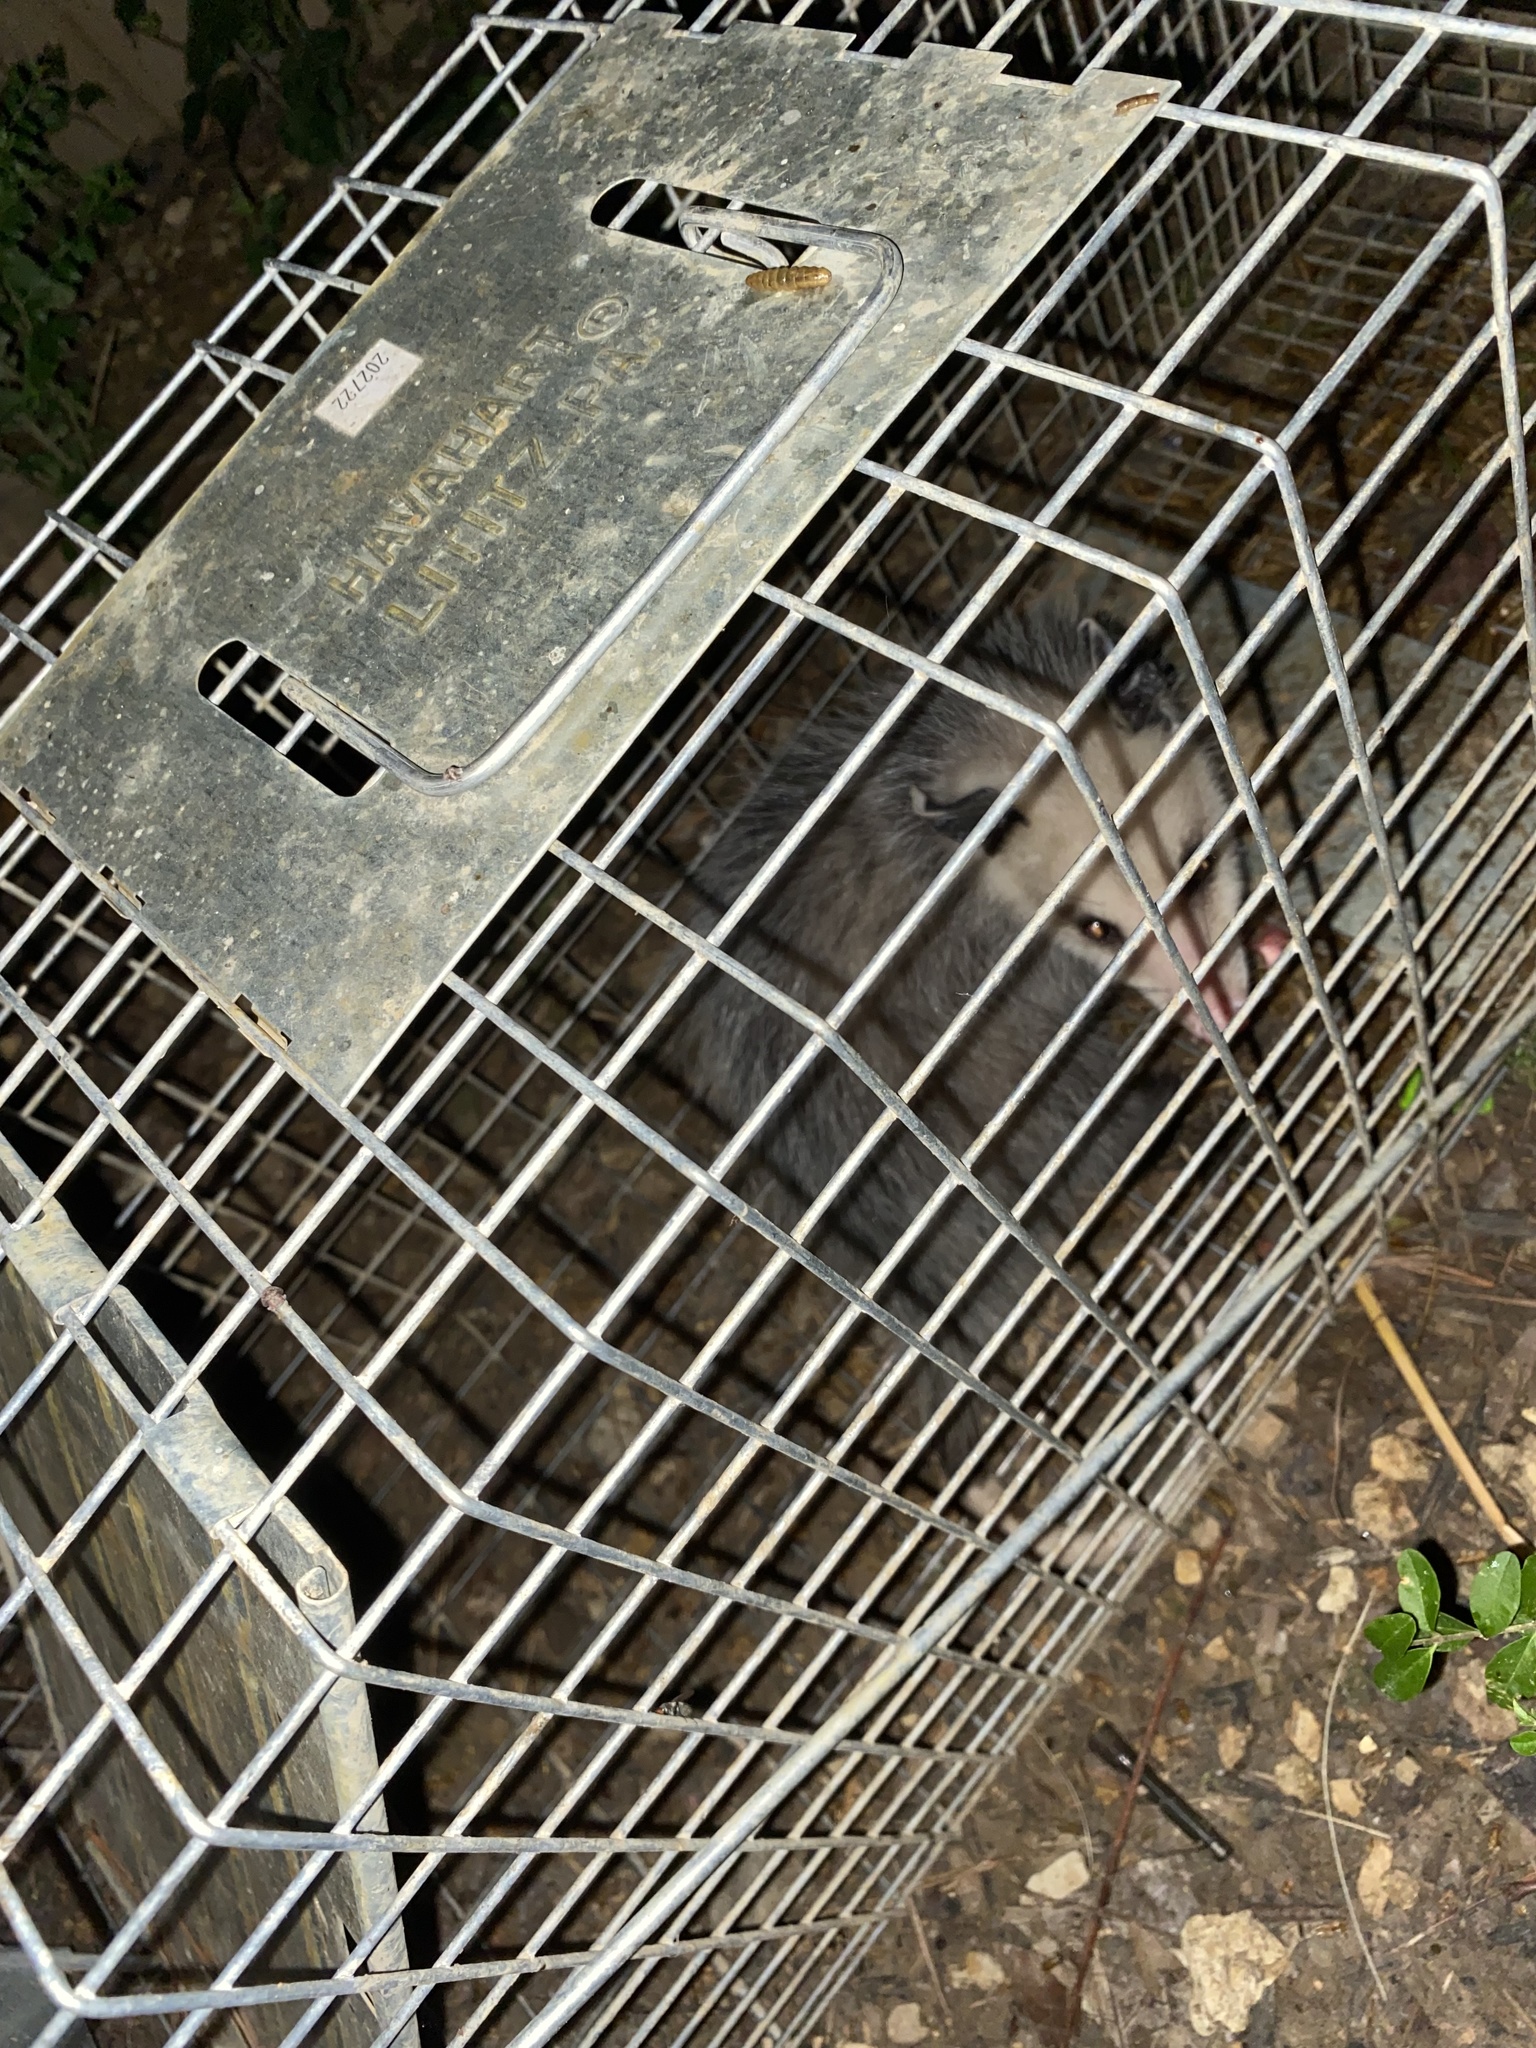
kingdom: Animalia
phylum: Chordata
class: Mammalia
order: Didelphimorphia
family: Didelphidae
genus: Didelphis
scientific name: Didelphis virginiana
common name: Virginia opossum
